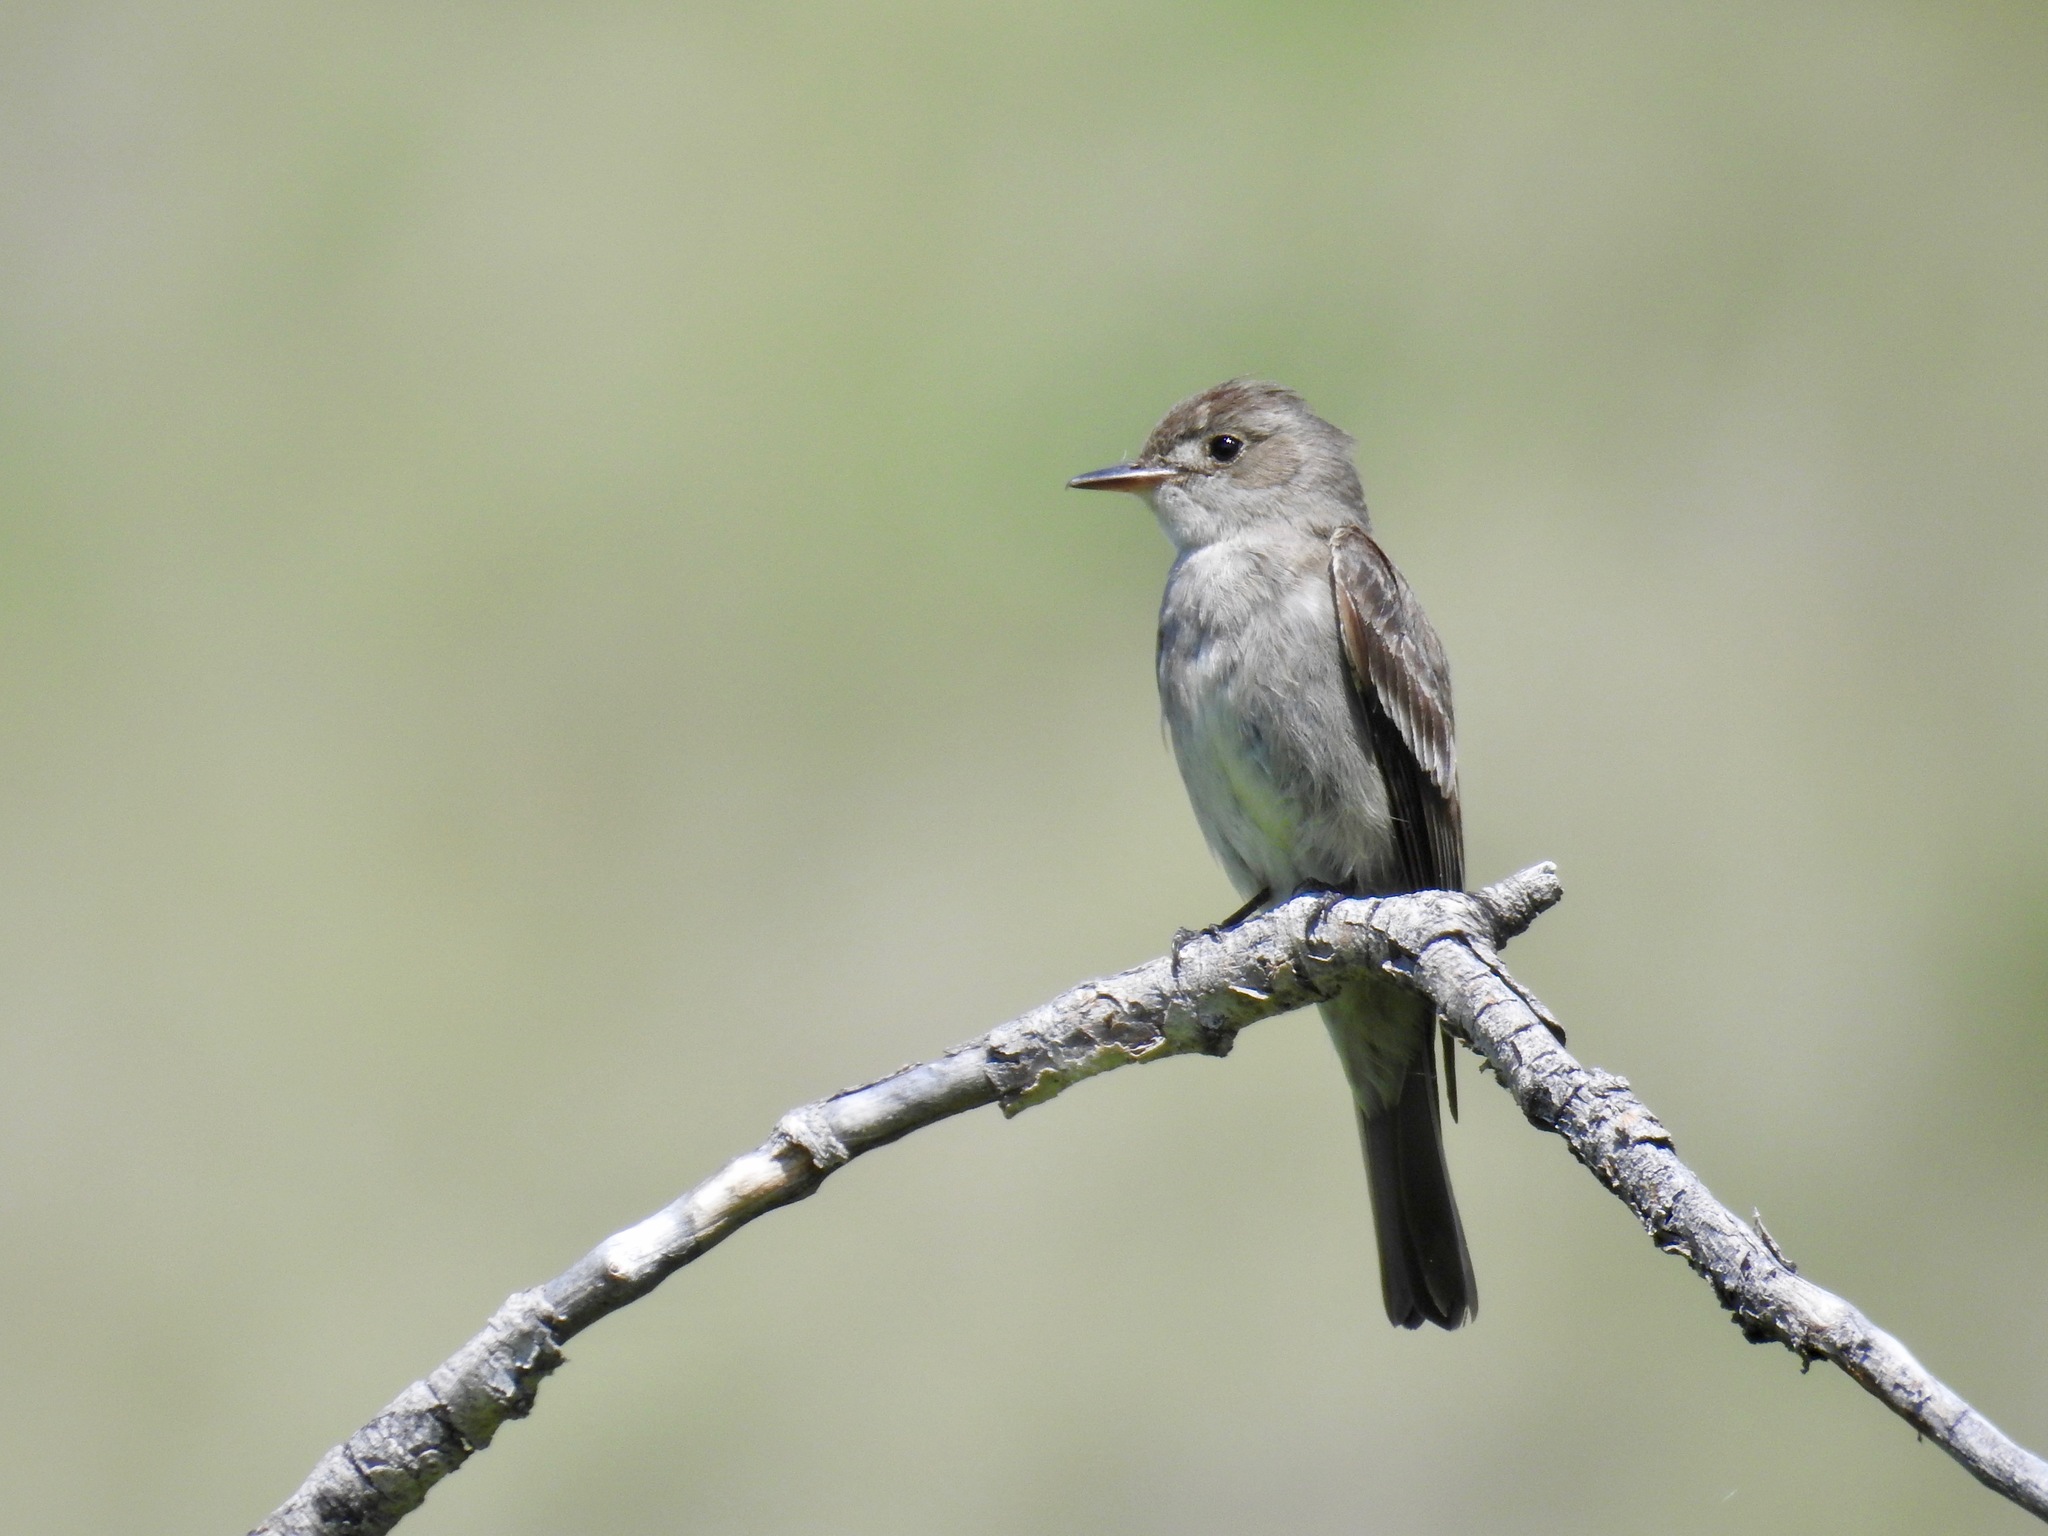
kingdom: Animalia
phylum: Chordata
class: Aves
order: Passeriformes
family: Tyrannidae
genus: Contopus
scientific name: Contopus sordidulus
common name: Western wood-pewee
